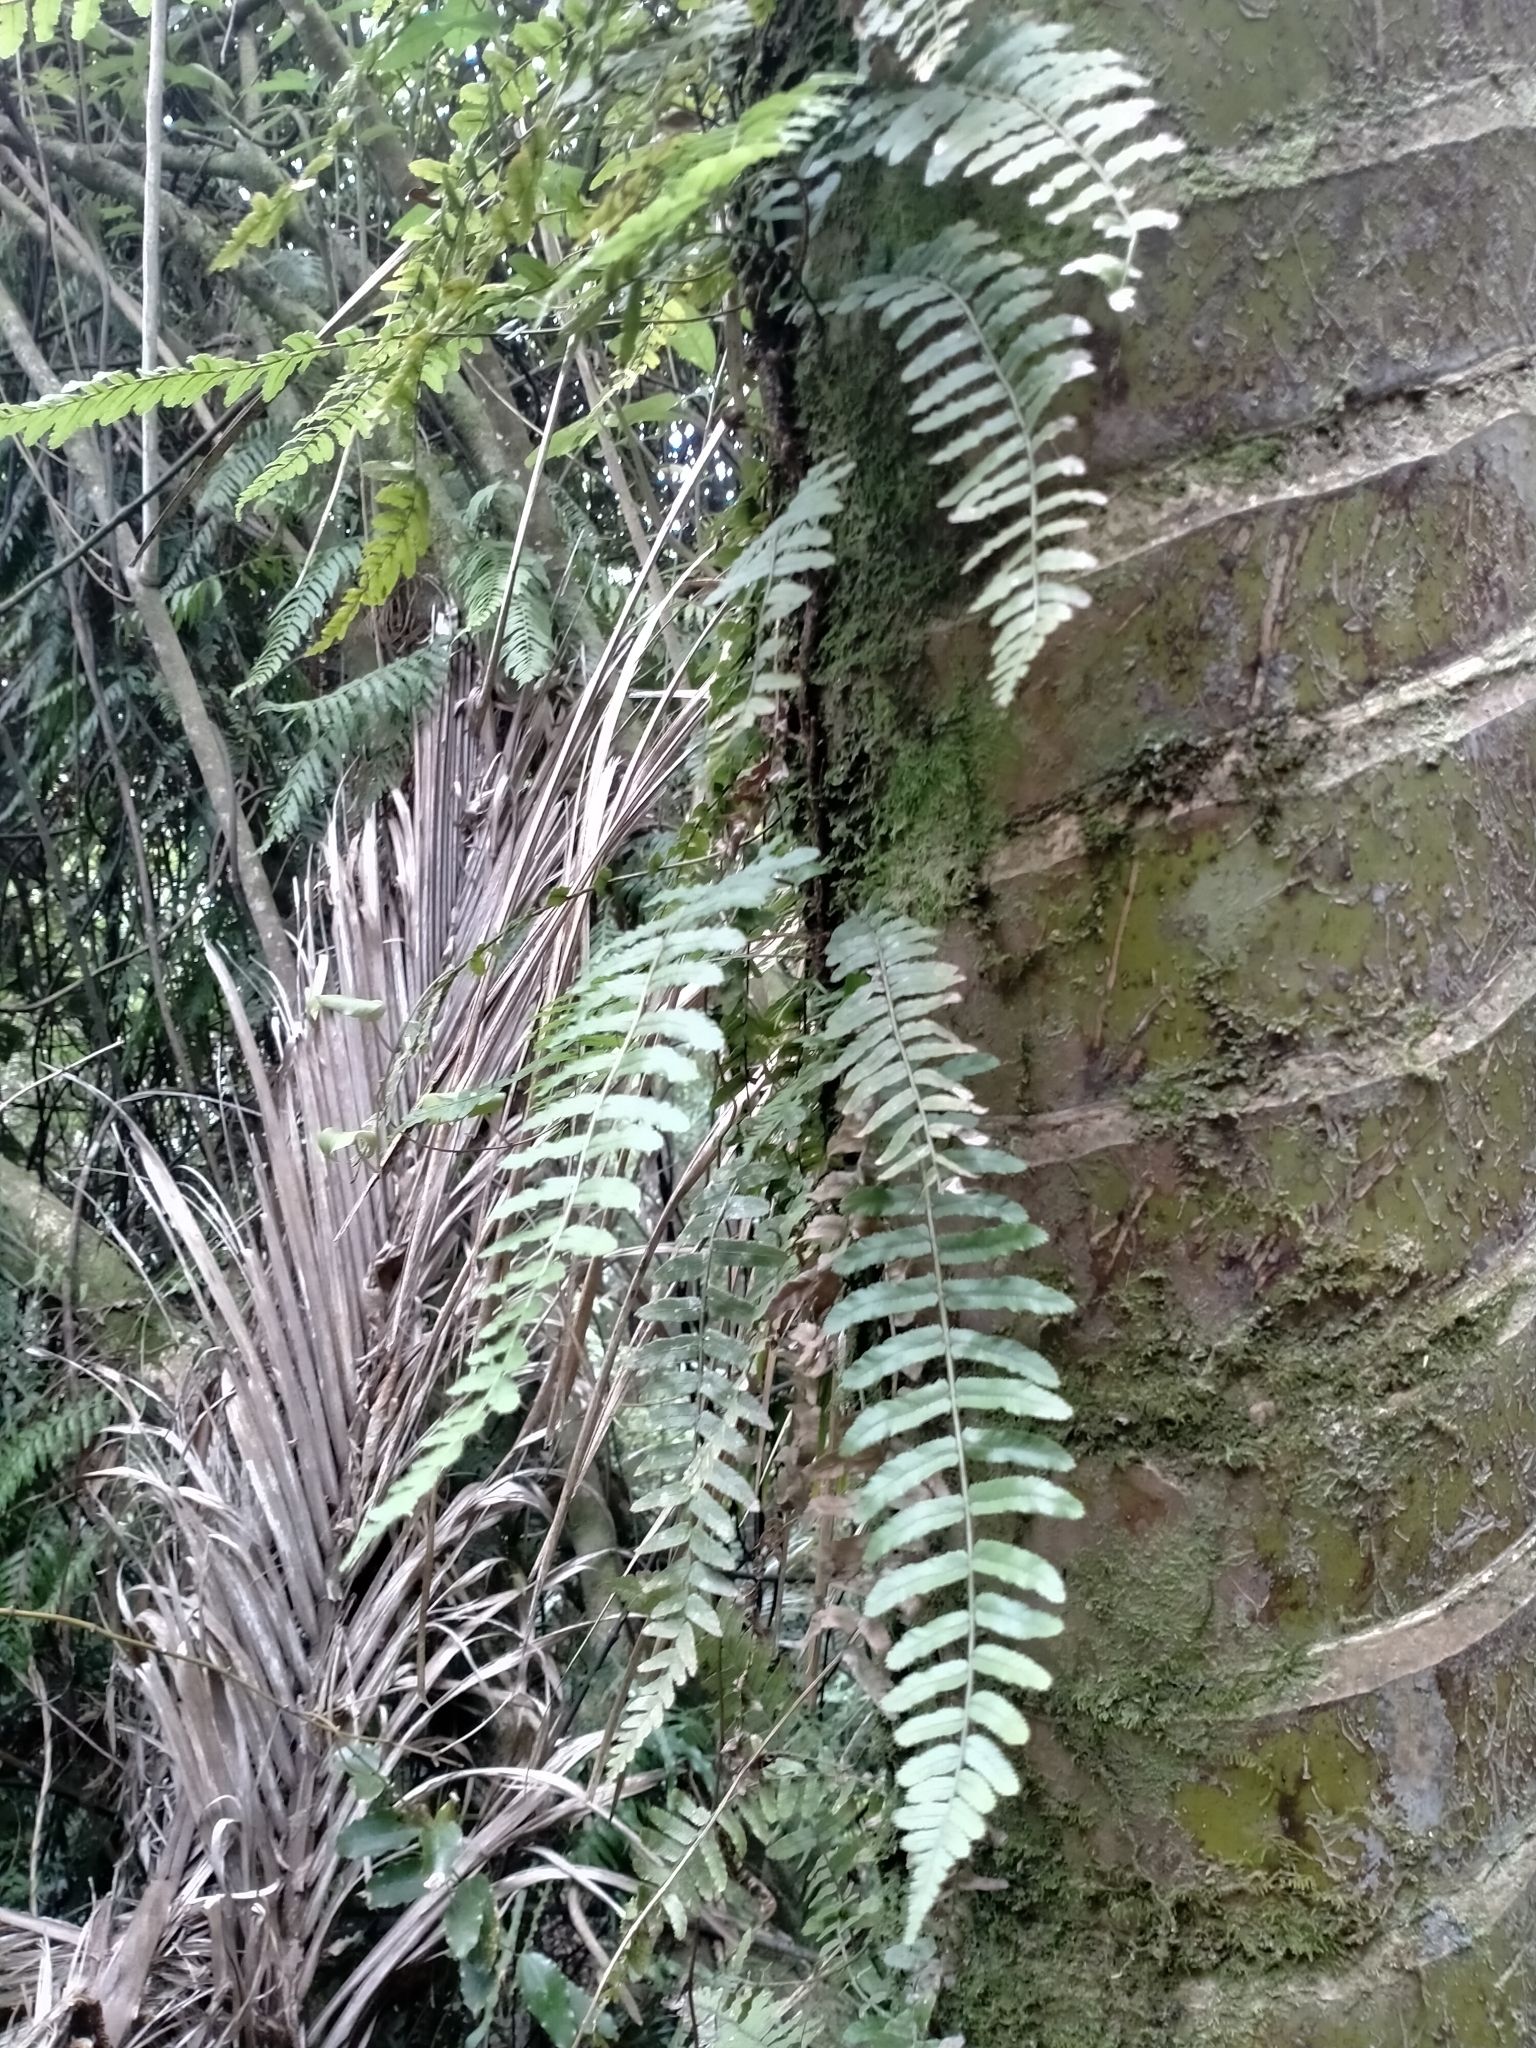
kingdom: Plantae
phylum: Tracheophyta
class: Polypodiopsida
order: Polypodiales
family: Blechnaceae
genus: Icarus
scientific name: Icarus filiformis
